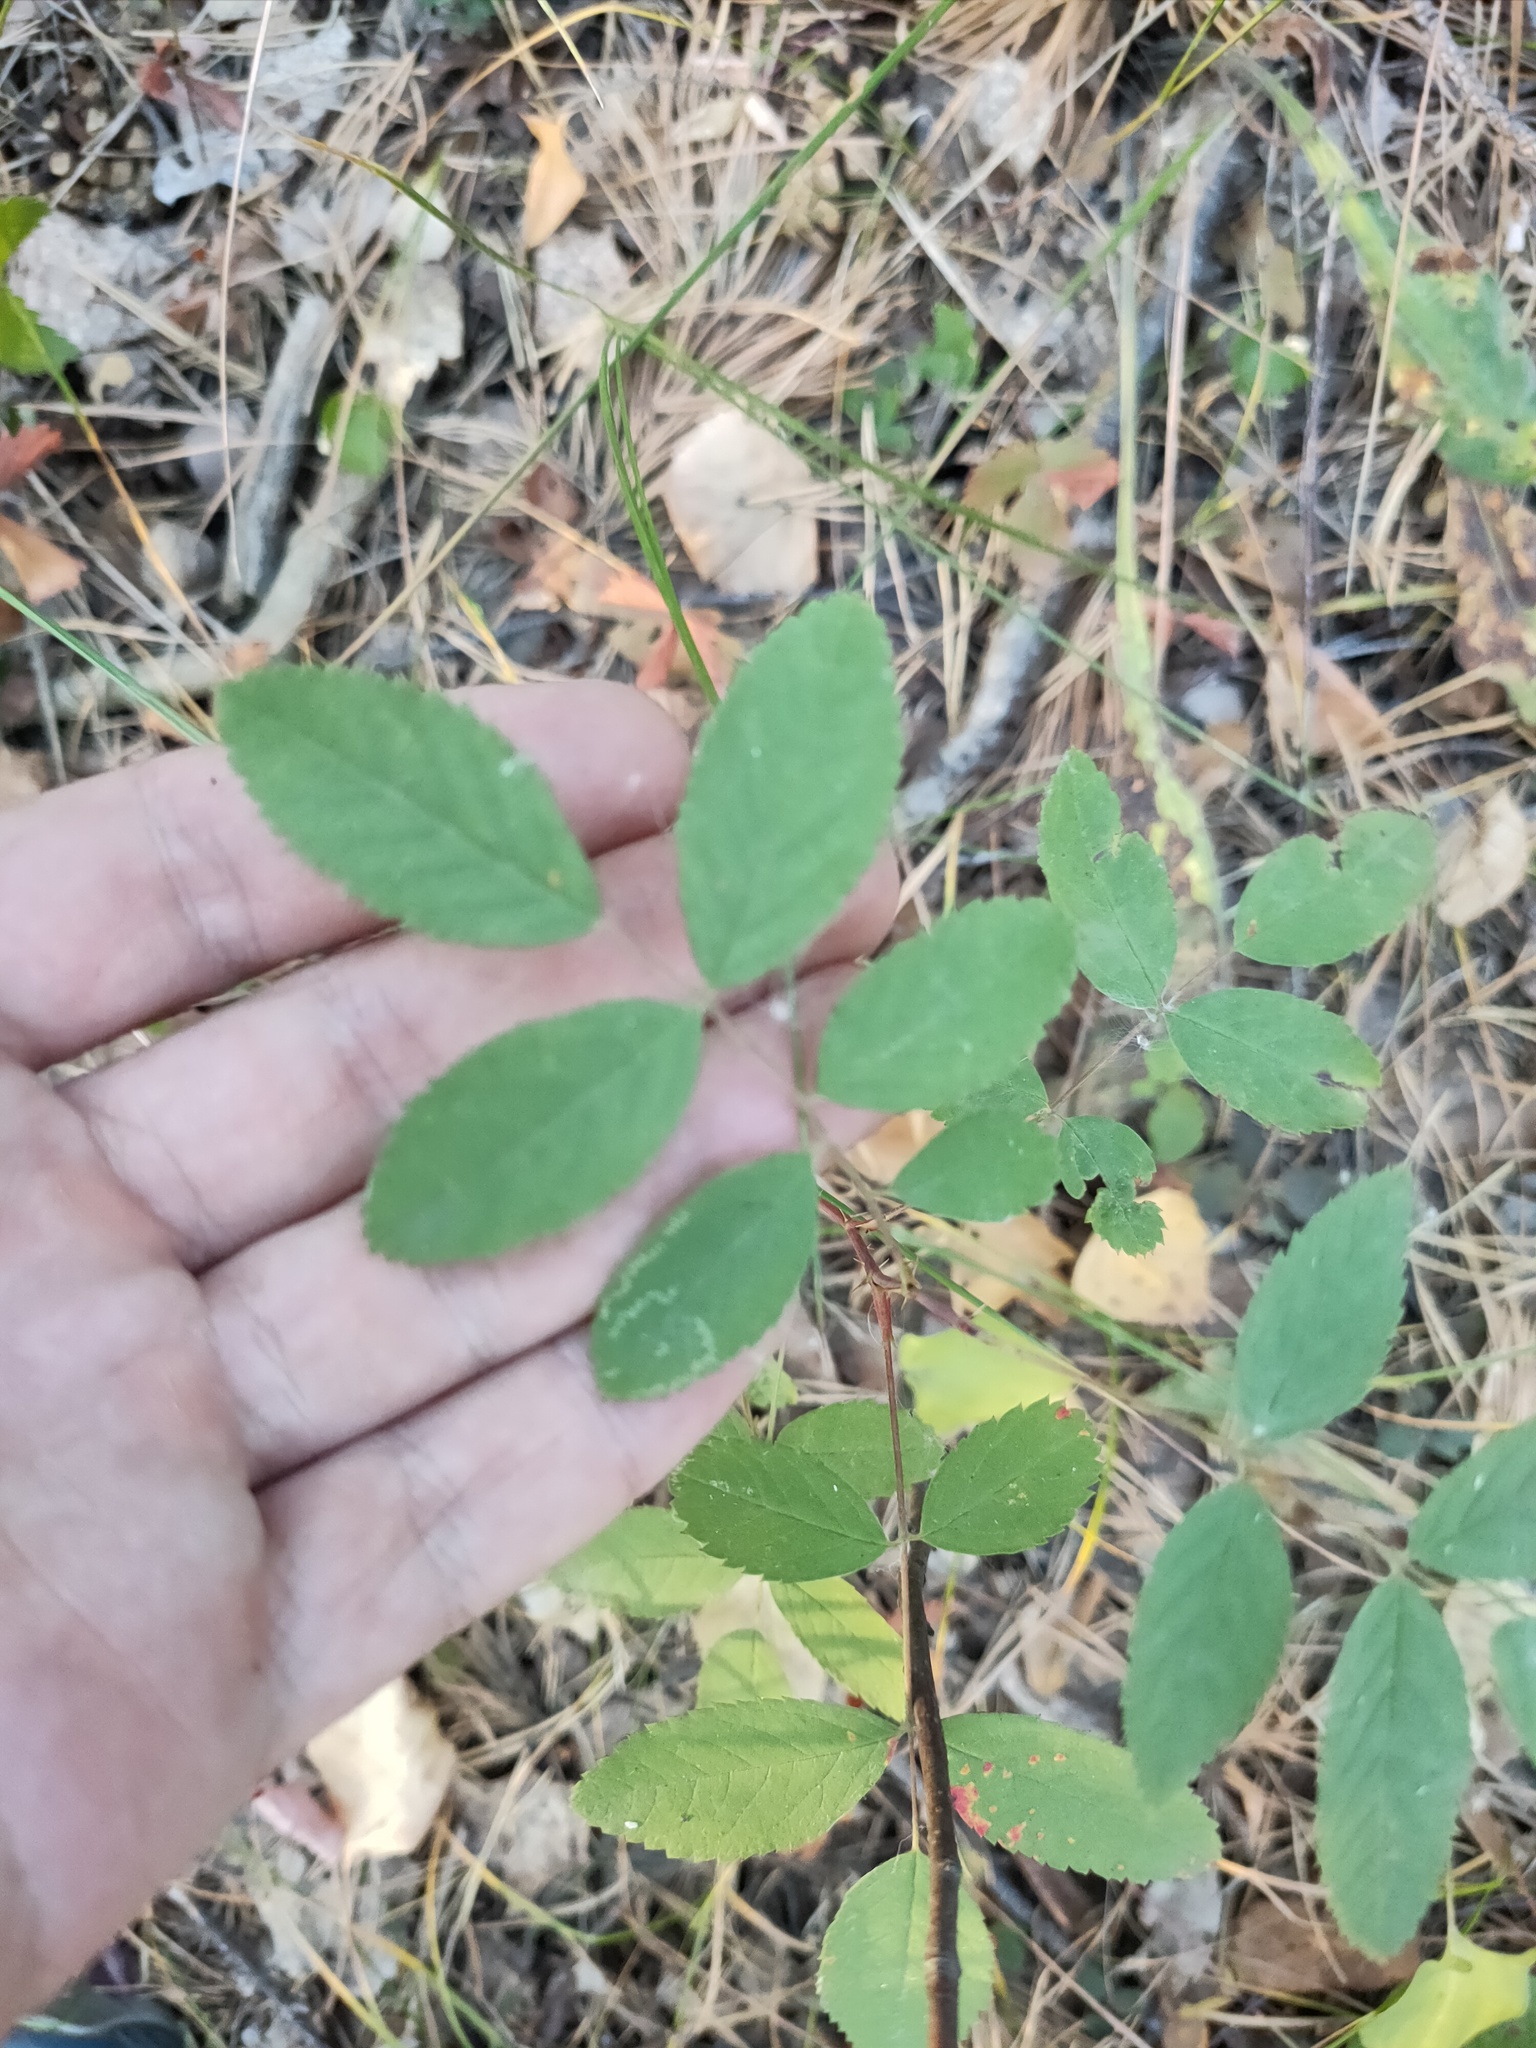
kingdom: Plantae
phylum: Tracheophyta
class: Magnoliopsida
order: Rosales
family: Rosaceae
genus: Rosa
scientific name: Rosa acicularis
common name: Prickly rose
